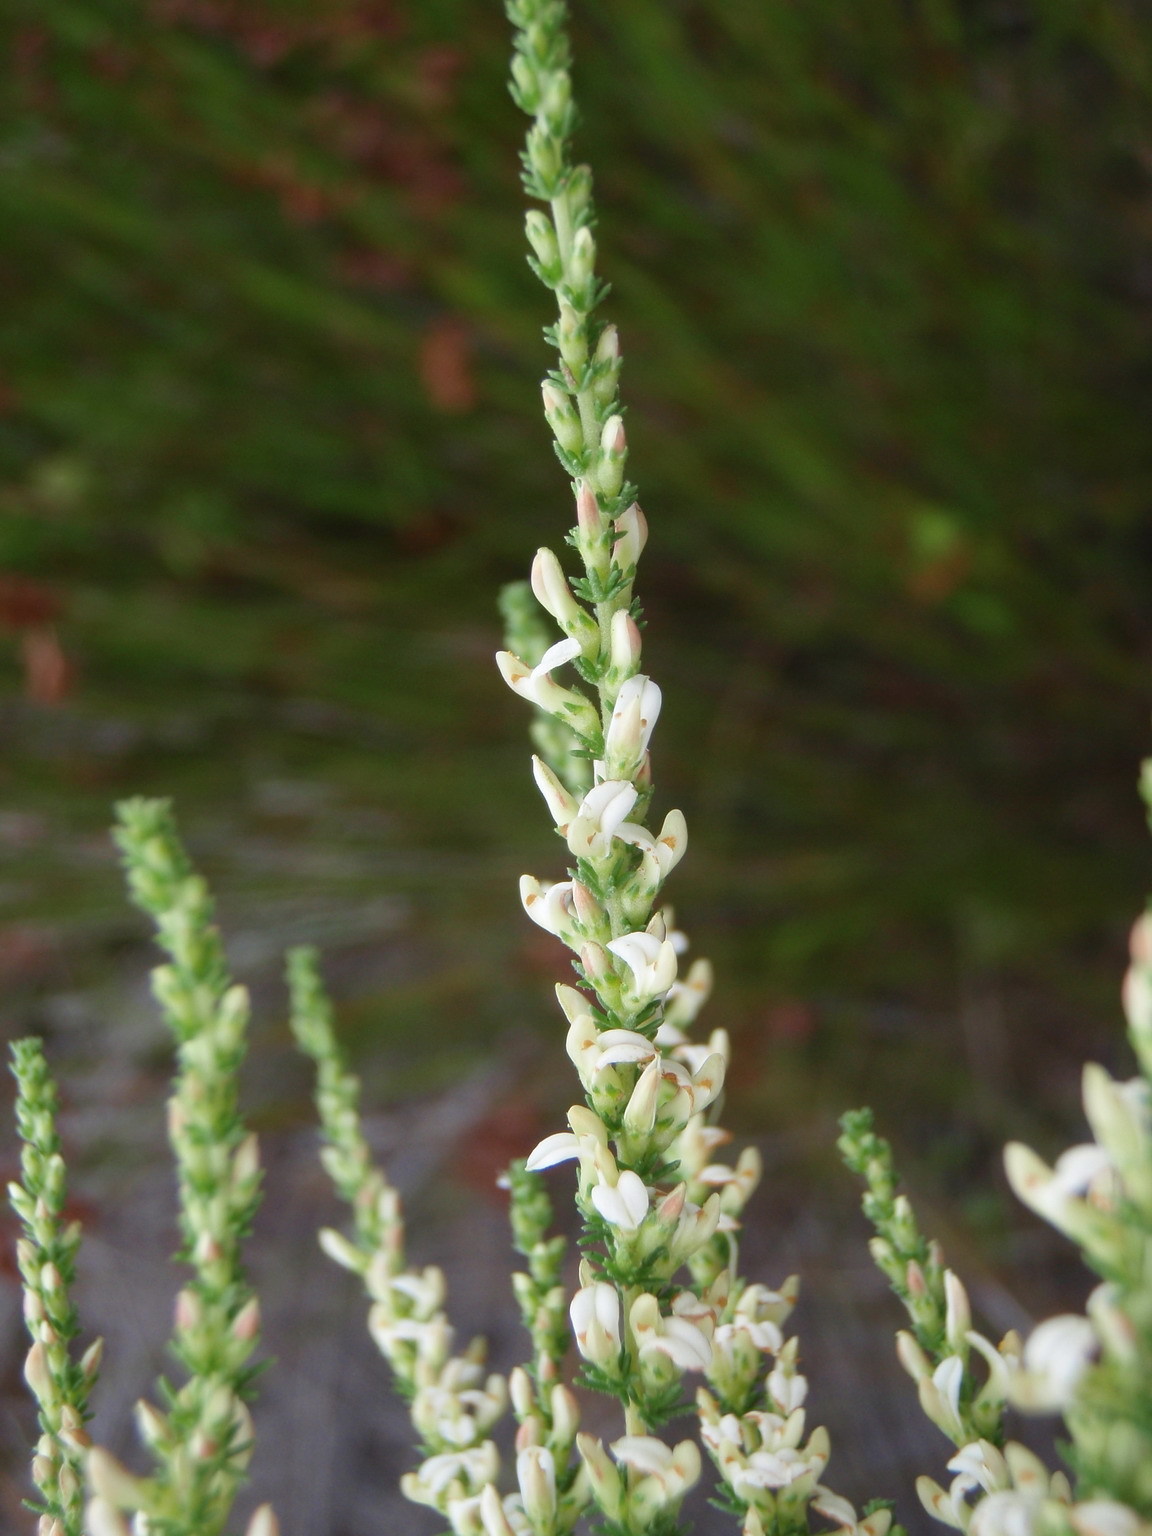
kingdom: Plantae
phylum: Tracheophyta
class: Magnoliopsida
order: Fabales
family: Fabaceae
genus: Aspalathus
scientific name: Aspalathus hispida
